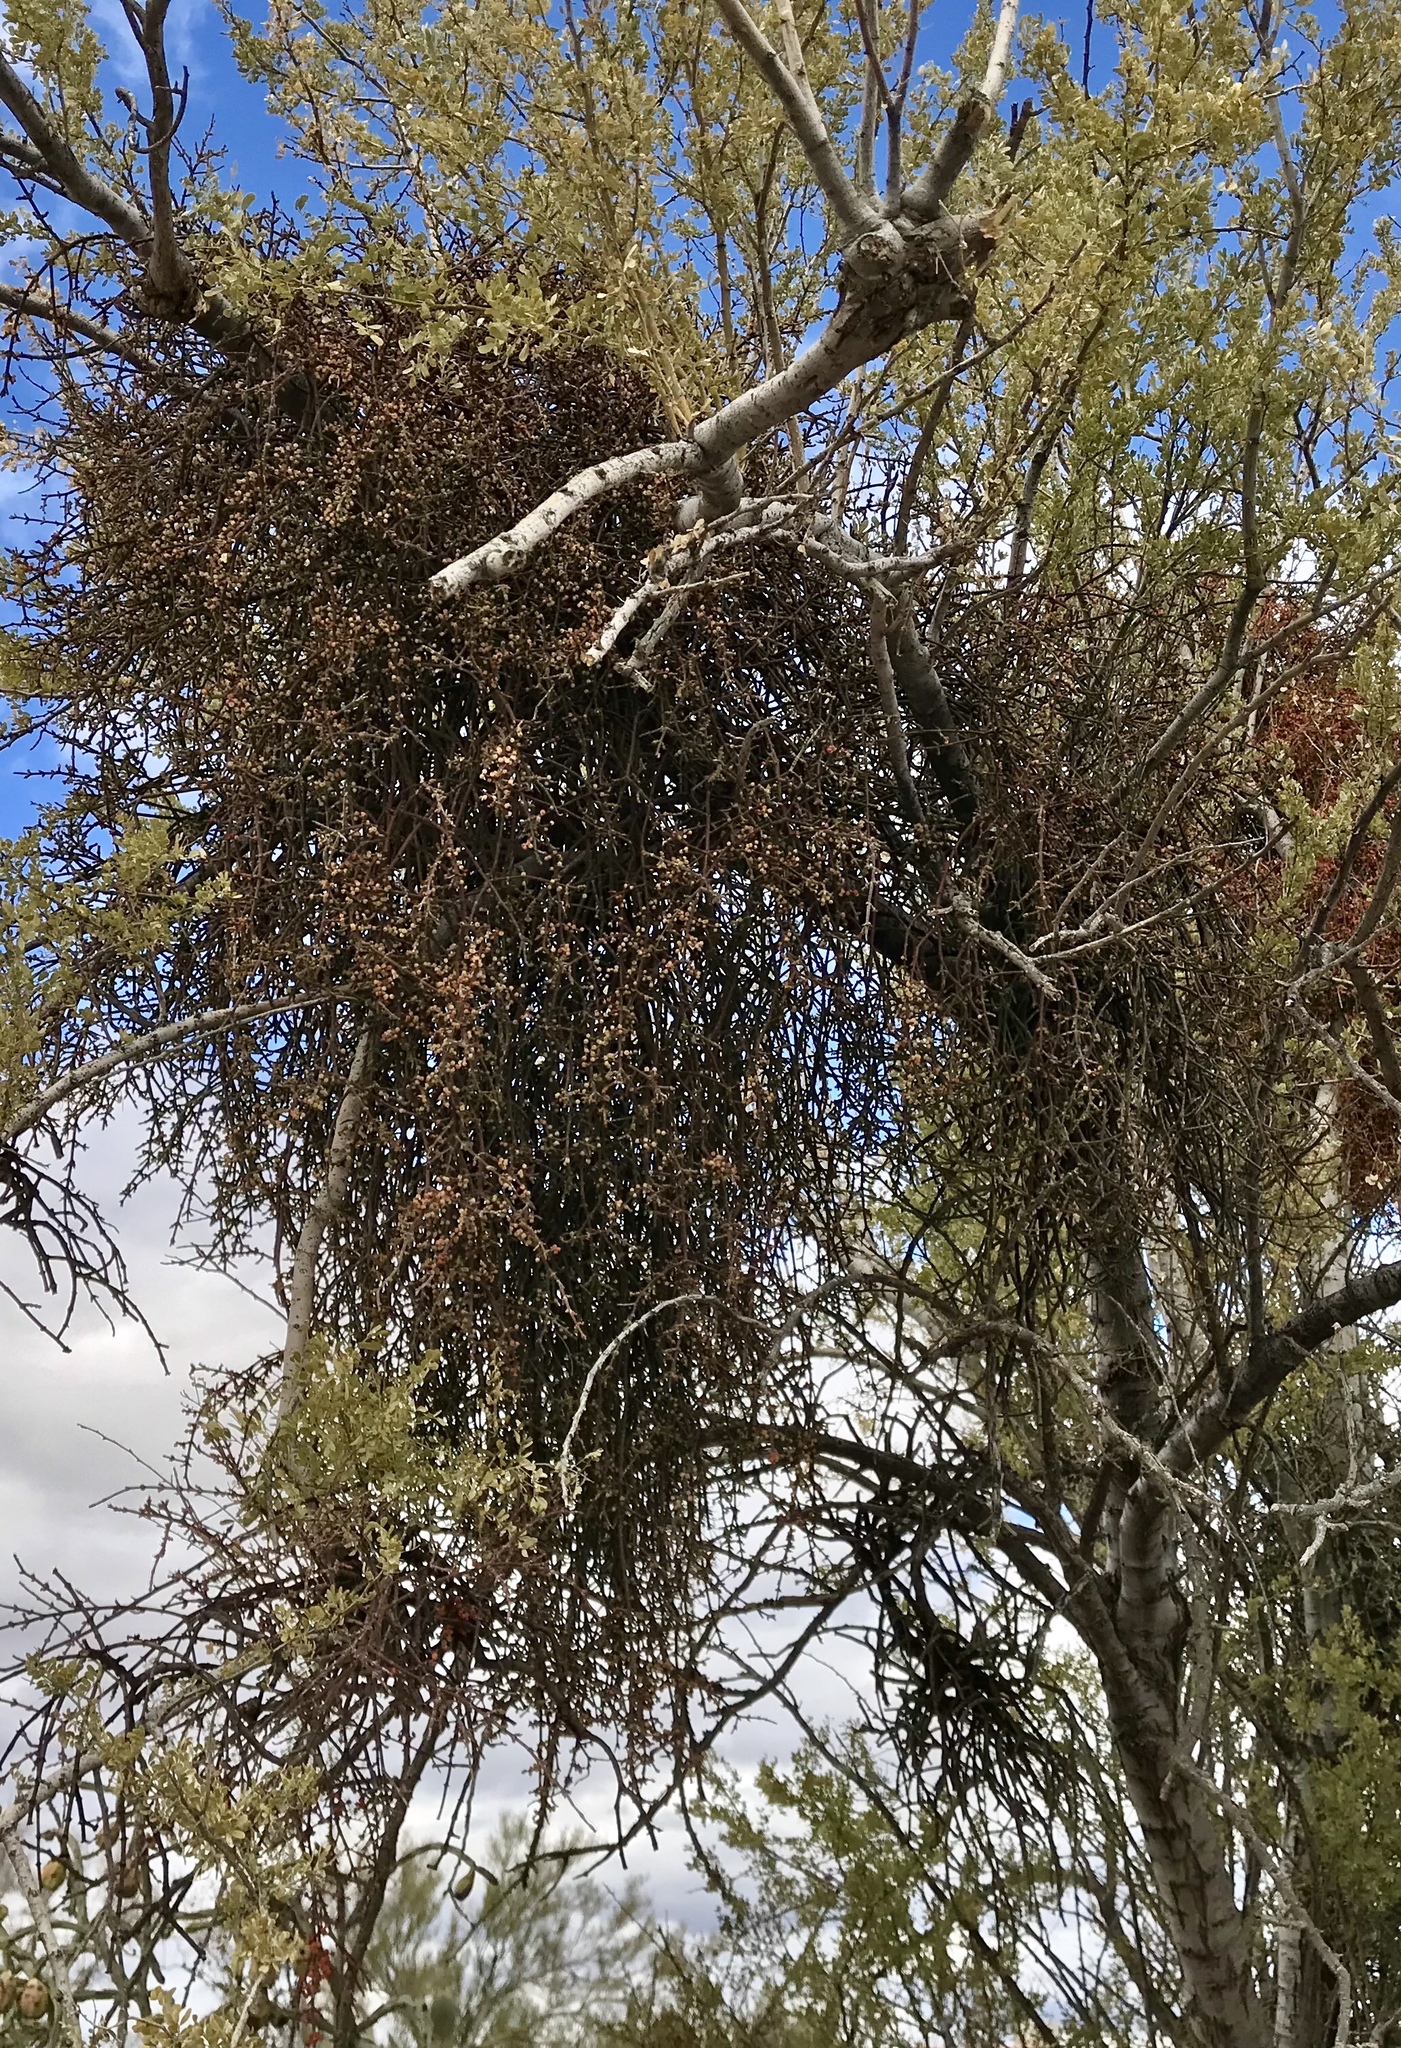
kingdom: Plantae
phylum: Tracheophyta
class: Magnoliopsida
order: Santalales
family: Viscaceae
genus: Phoradendron
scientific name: Phoradendron californicum
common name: Acacia mistletoe
